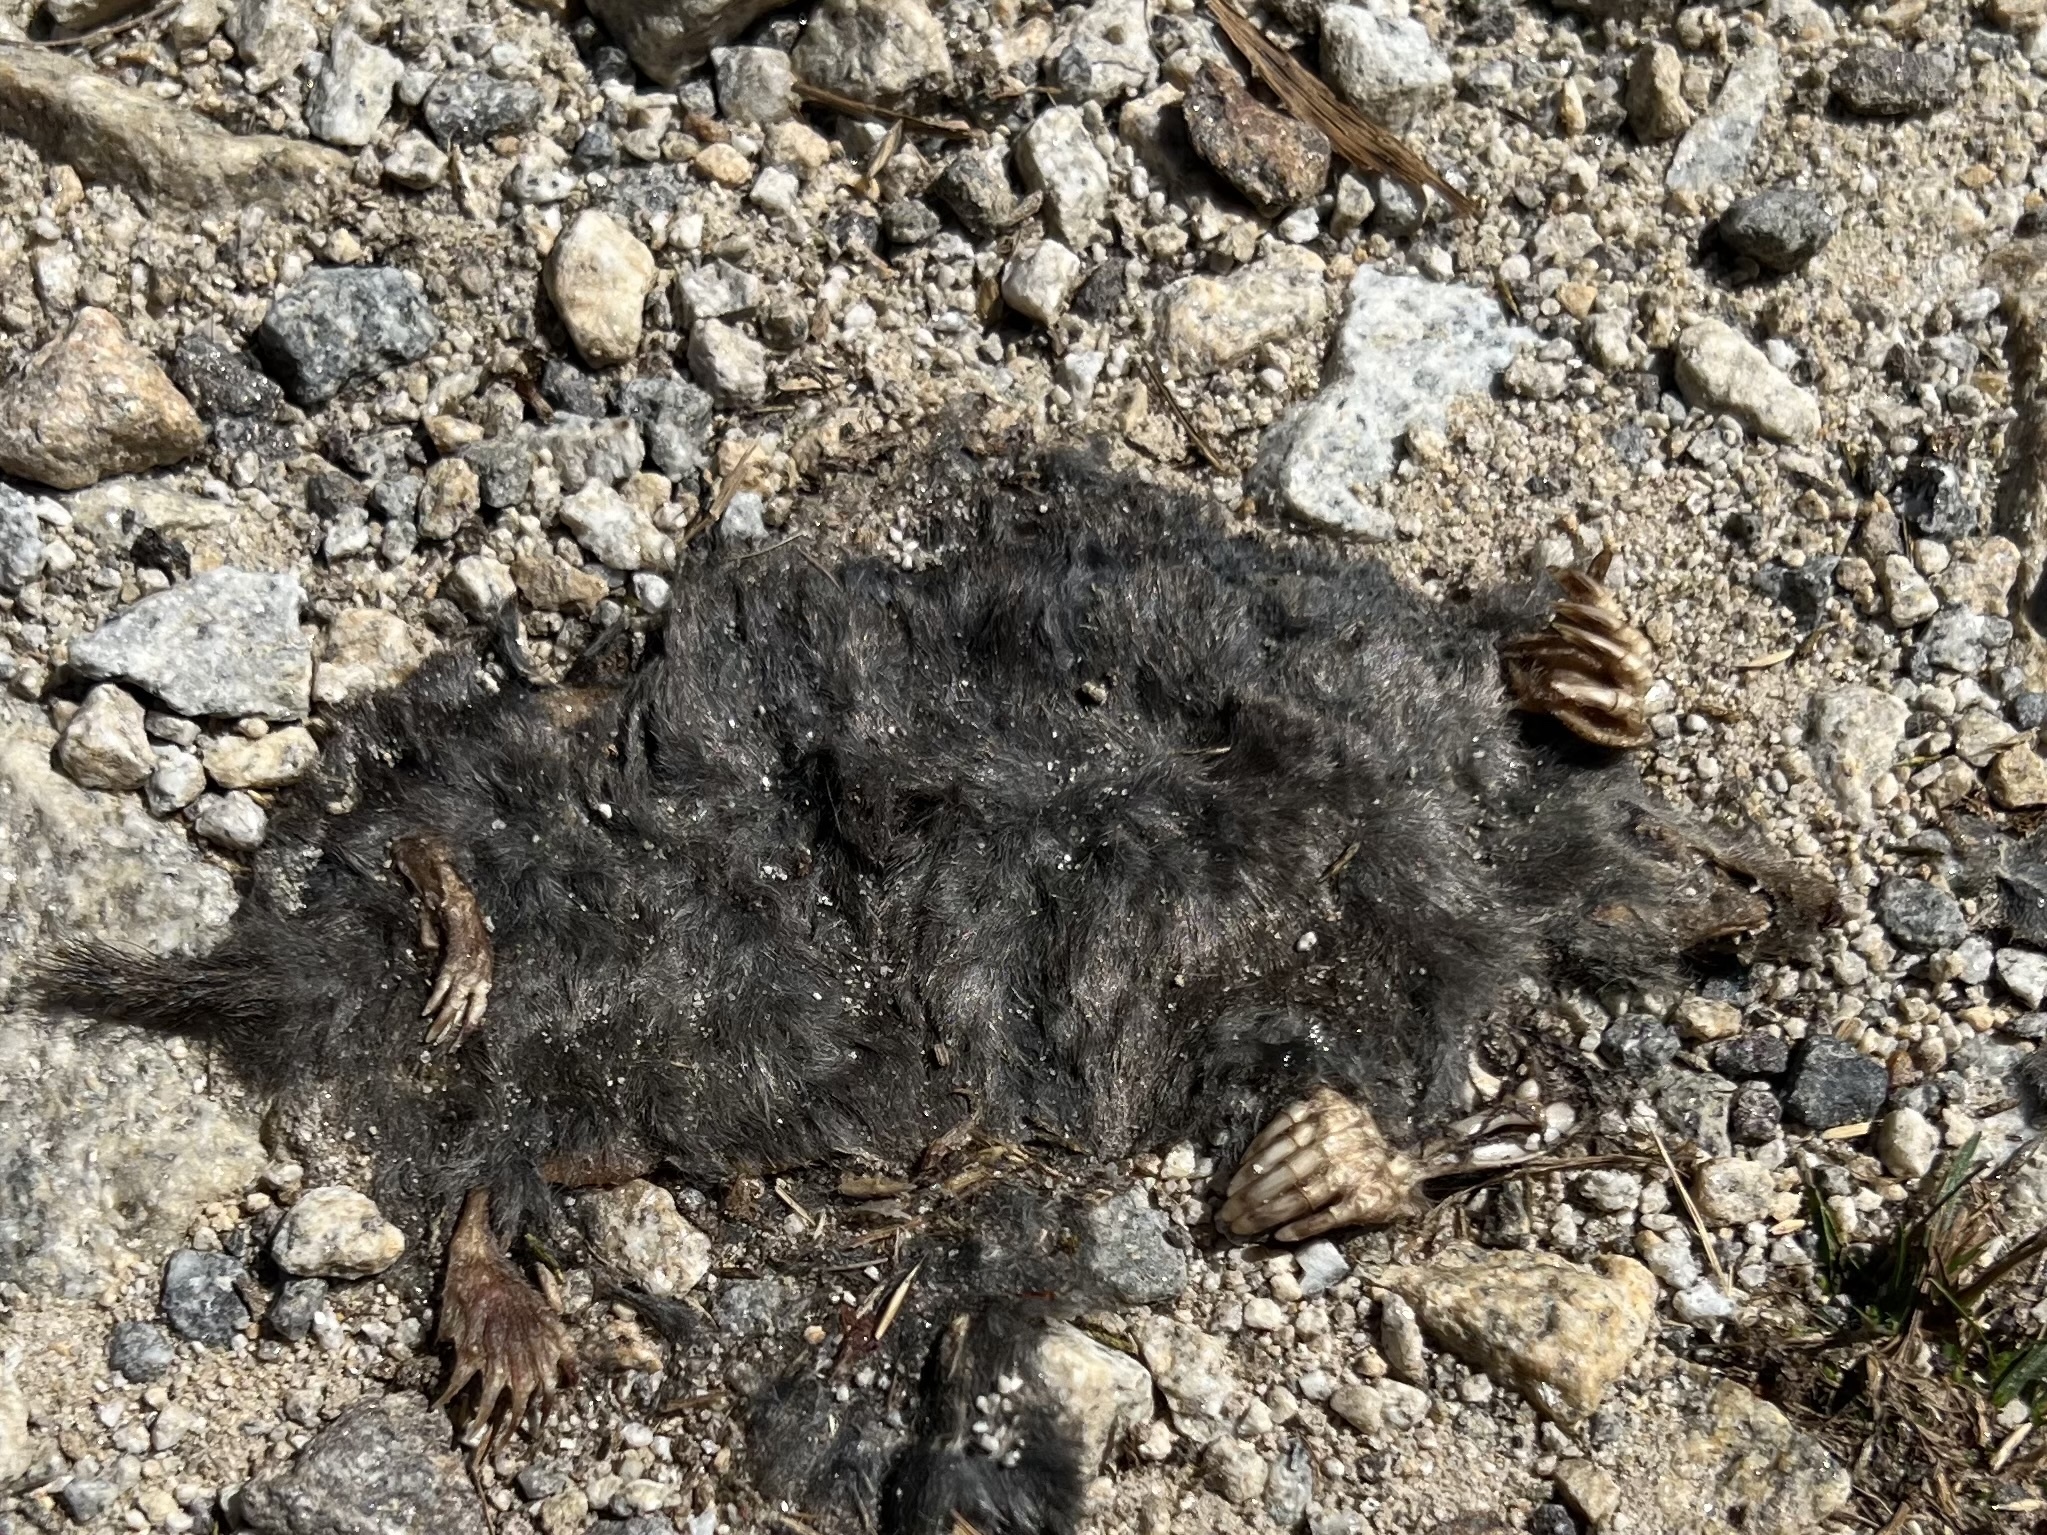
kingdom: Animalia
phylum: Chordata
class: Mammalia
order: Soricomorpha
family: Talpidae
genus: Talpa
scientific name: Talpa europaea
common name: European mole
